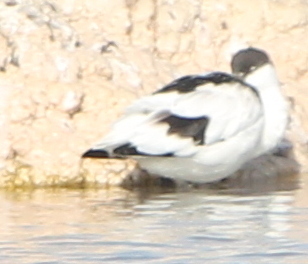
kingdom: Animalia
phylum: Chordata
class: Aves
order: Charadriiformes
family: Recurvirostridae
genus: Recurvirostra
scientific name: Recurvirostra avosetta
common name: Pied avocet
